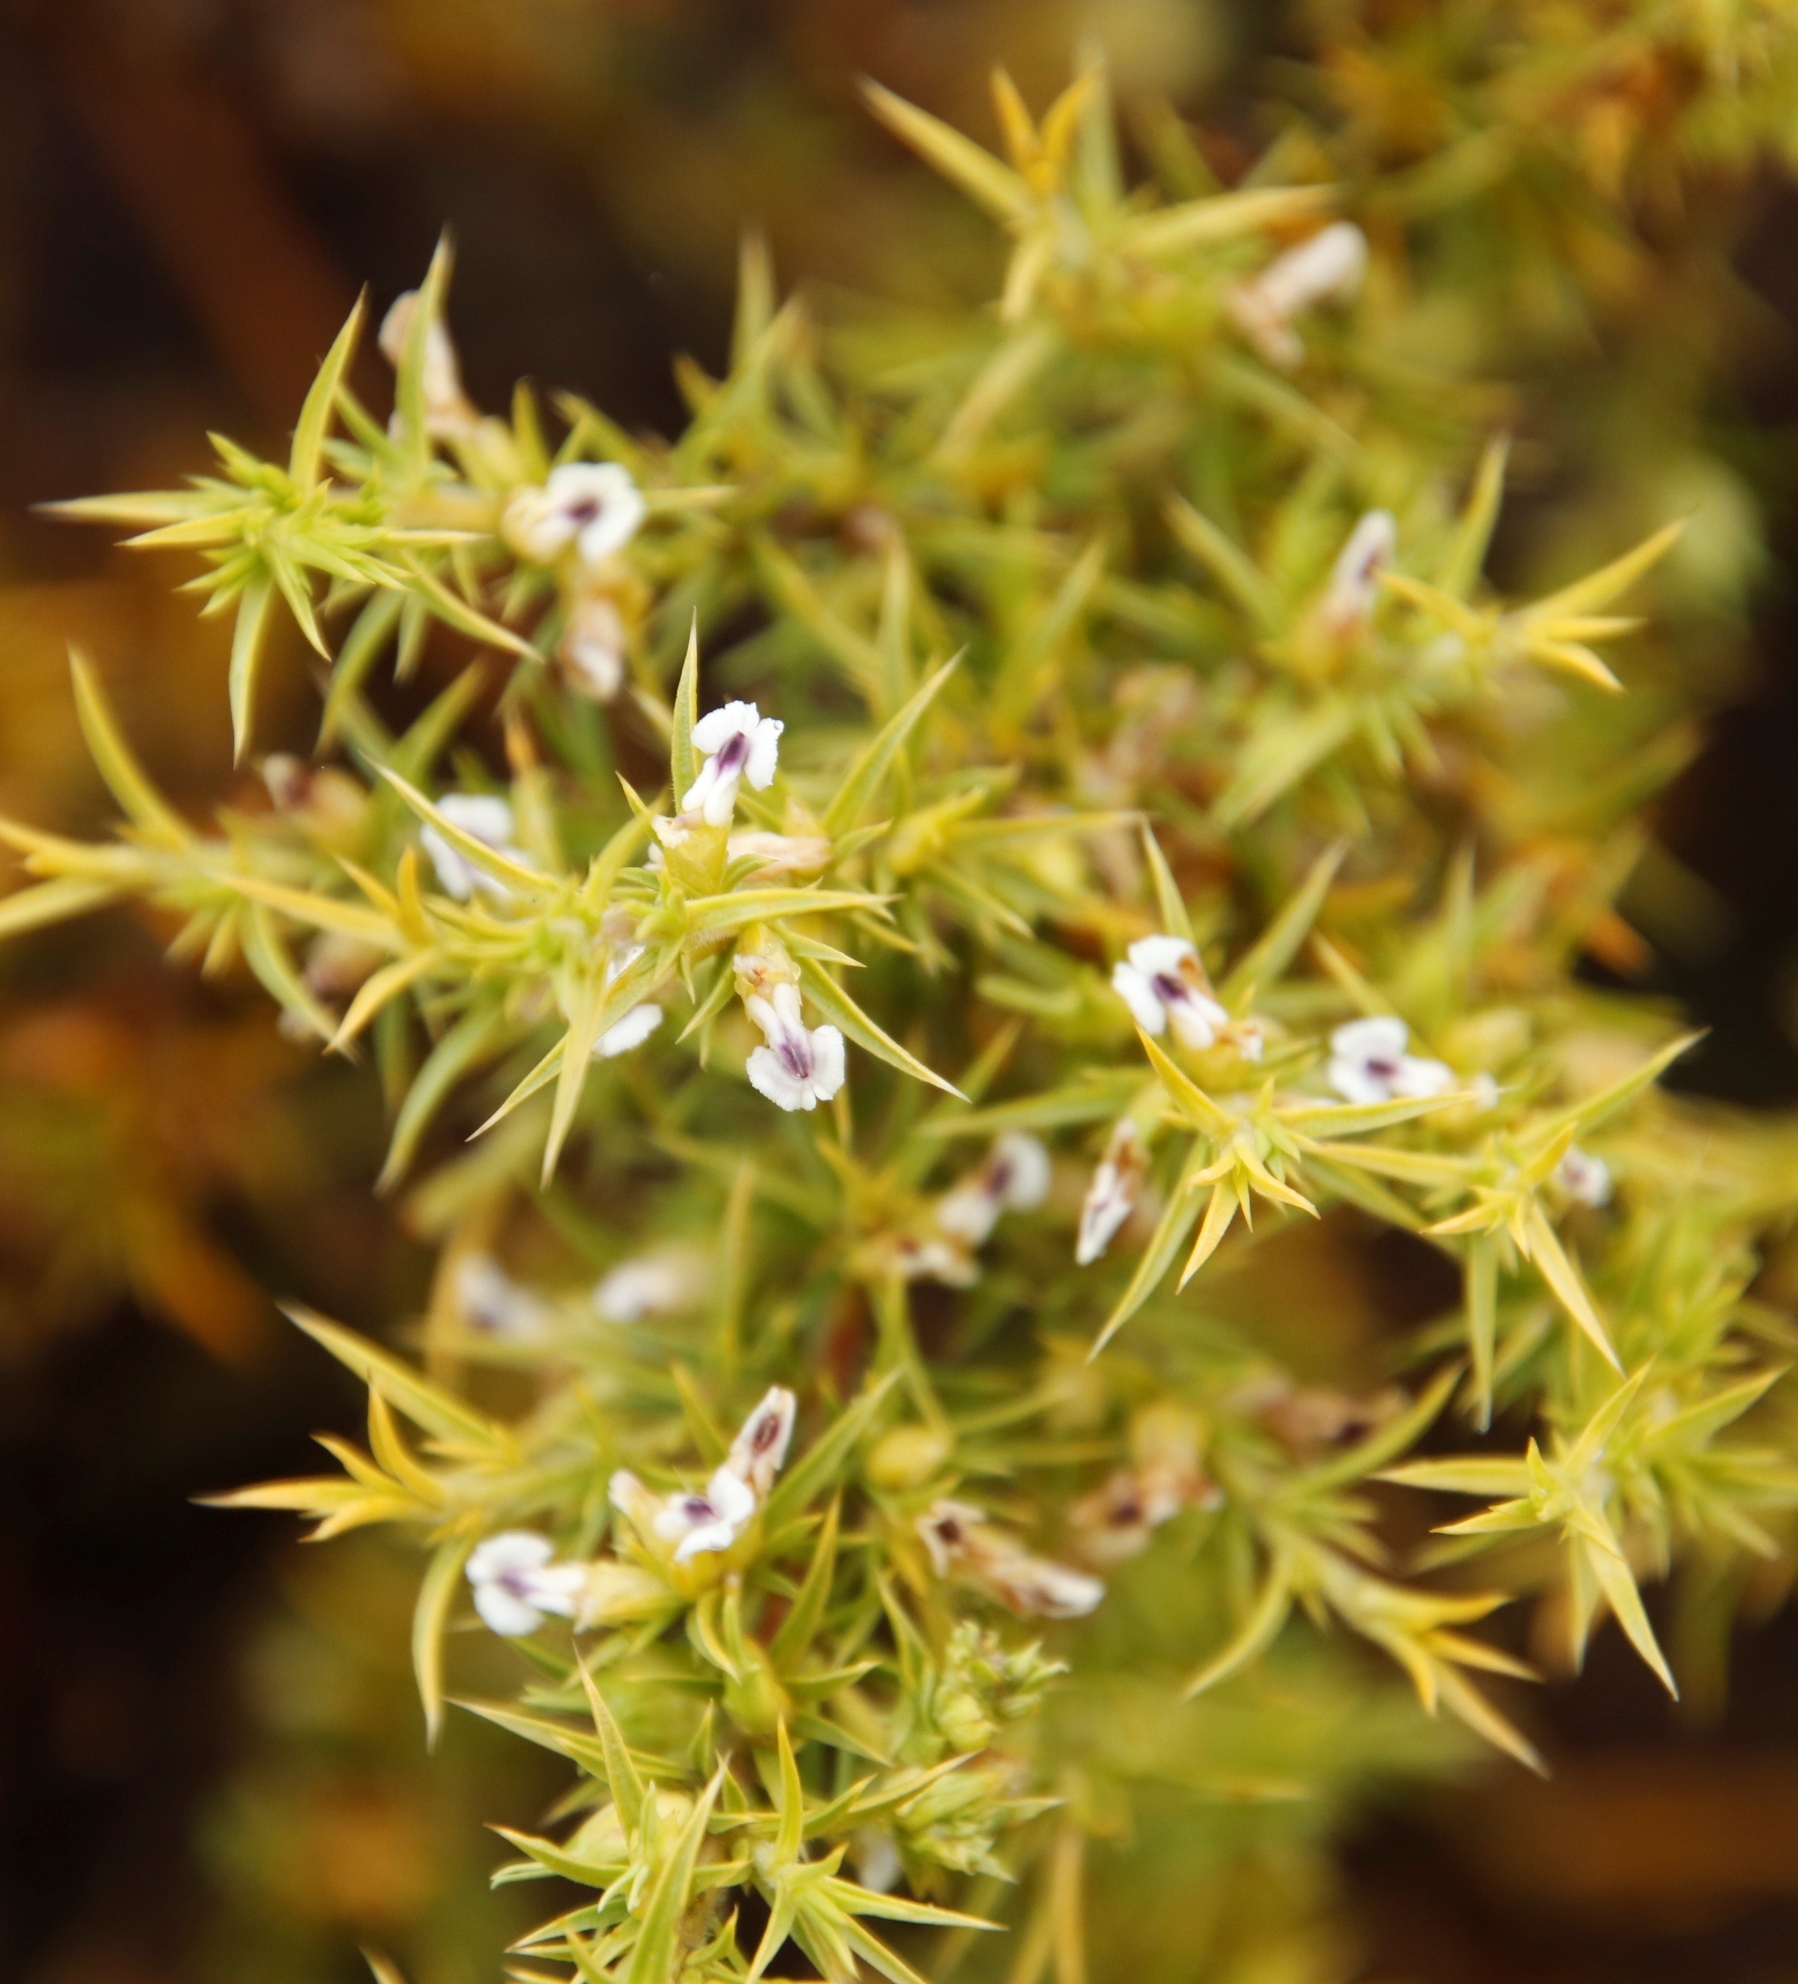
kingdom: Plantae
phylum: Tracheophyta
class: Magnoliopsida
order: Fabales
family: Polygalaceae
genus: Muraltia
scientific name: Muraltia ericifolia
